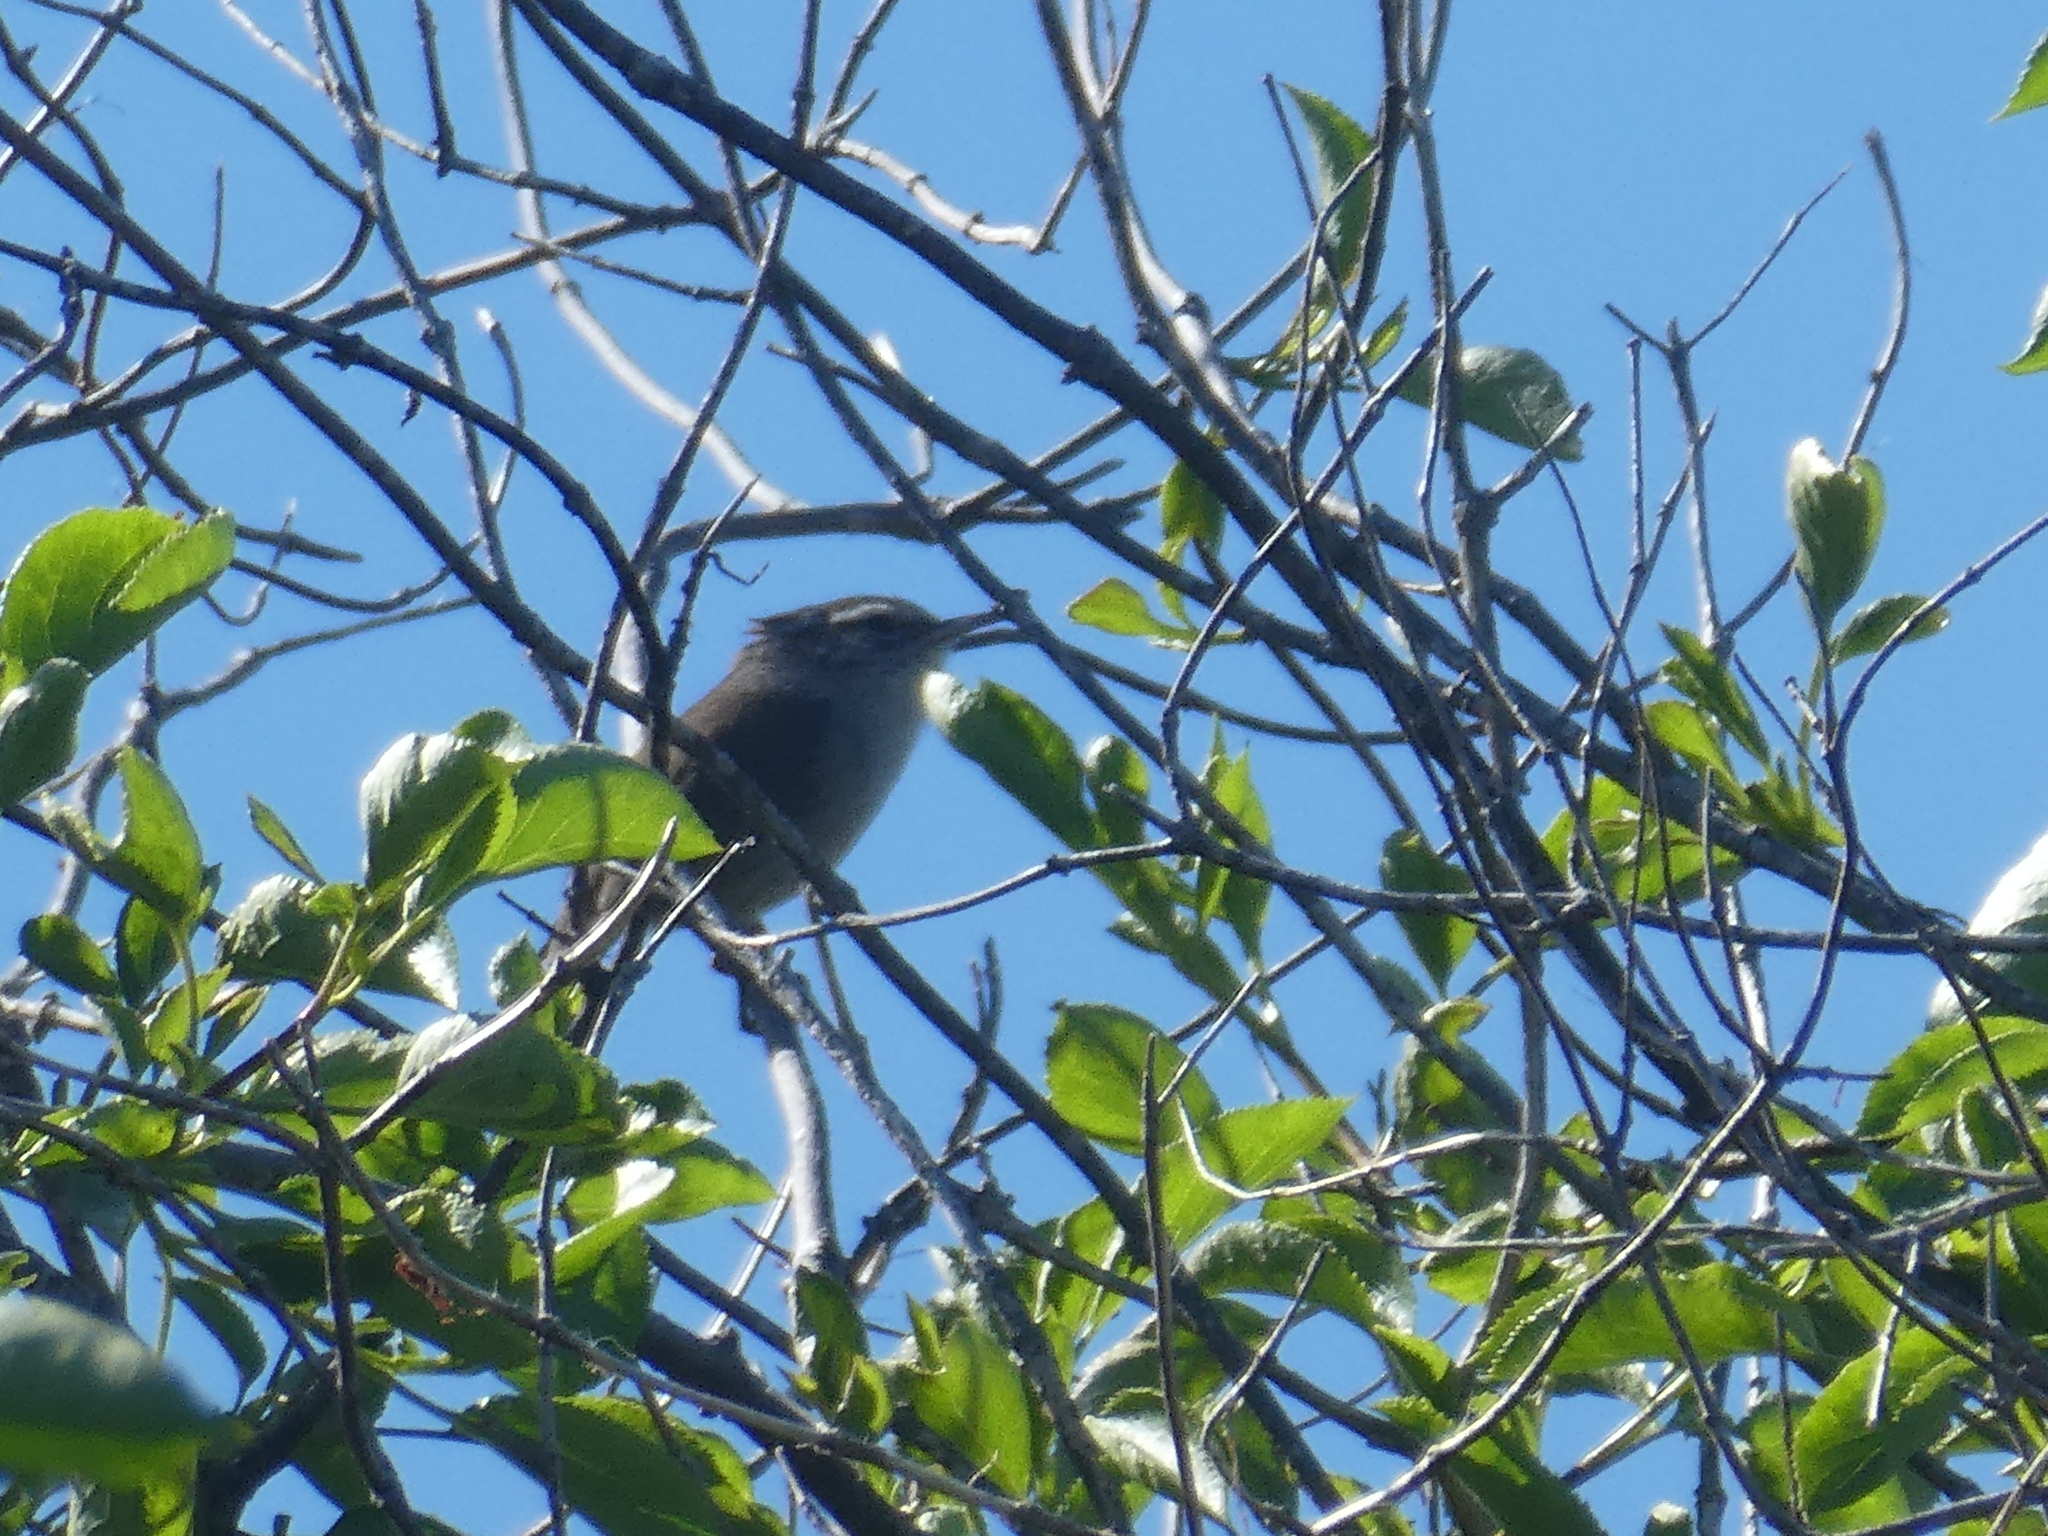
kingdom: Animalia
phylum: Chordata
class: Aves
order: Passeriformes
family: Troglodytidae
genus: Thryomanes
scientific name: Thryomanes bewickii
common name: Bewick's wren
